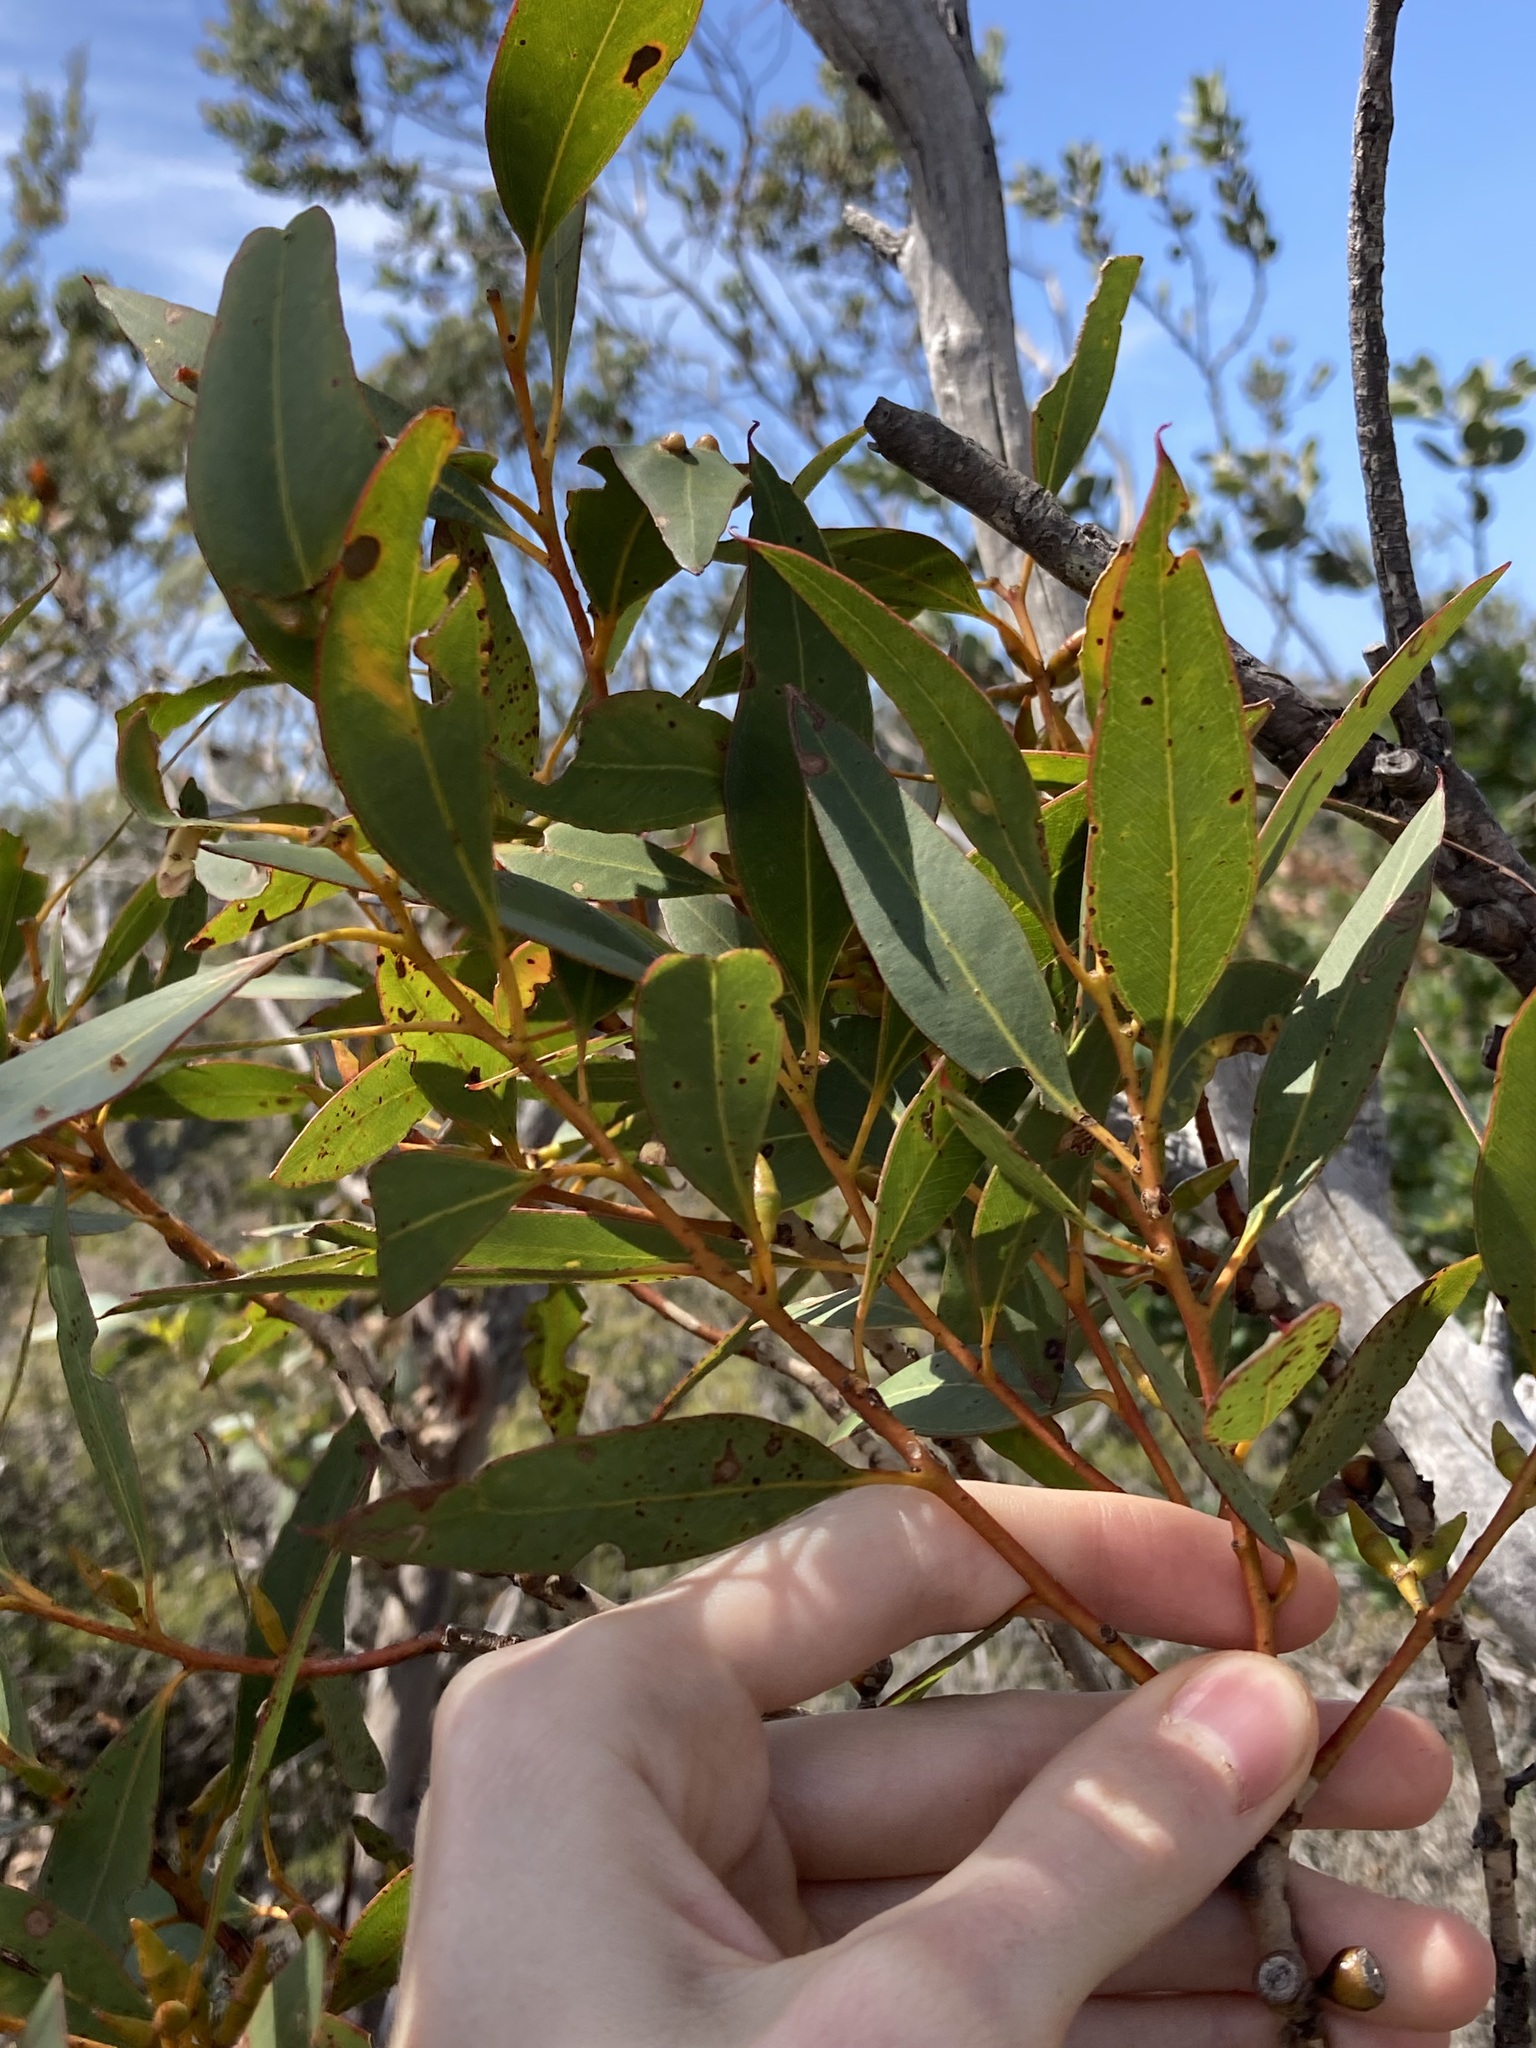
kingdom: Plantae
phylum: Tracheophyta
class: Magnoliopsida
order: Myrtales
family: Myrtaceae
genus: Eucalyptus
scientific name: Eucalyptus uncinata
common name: Hooked-leaved mallee
